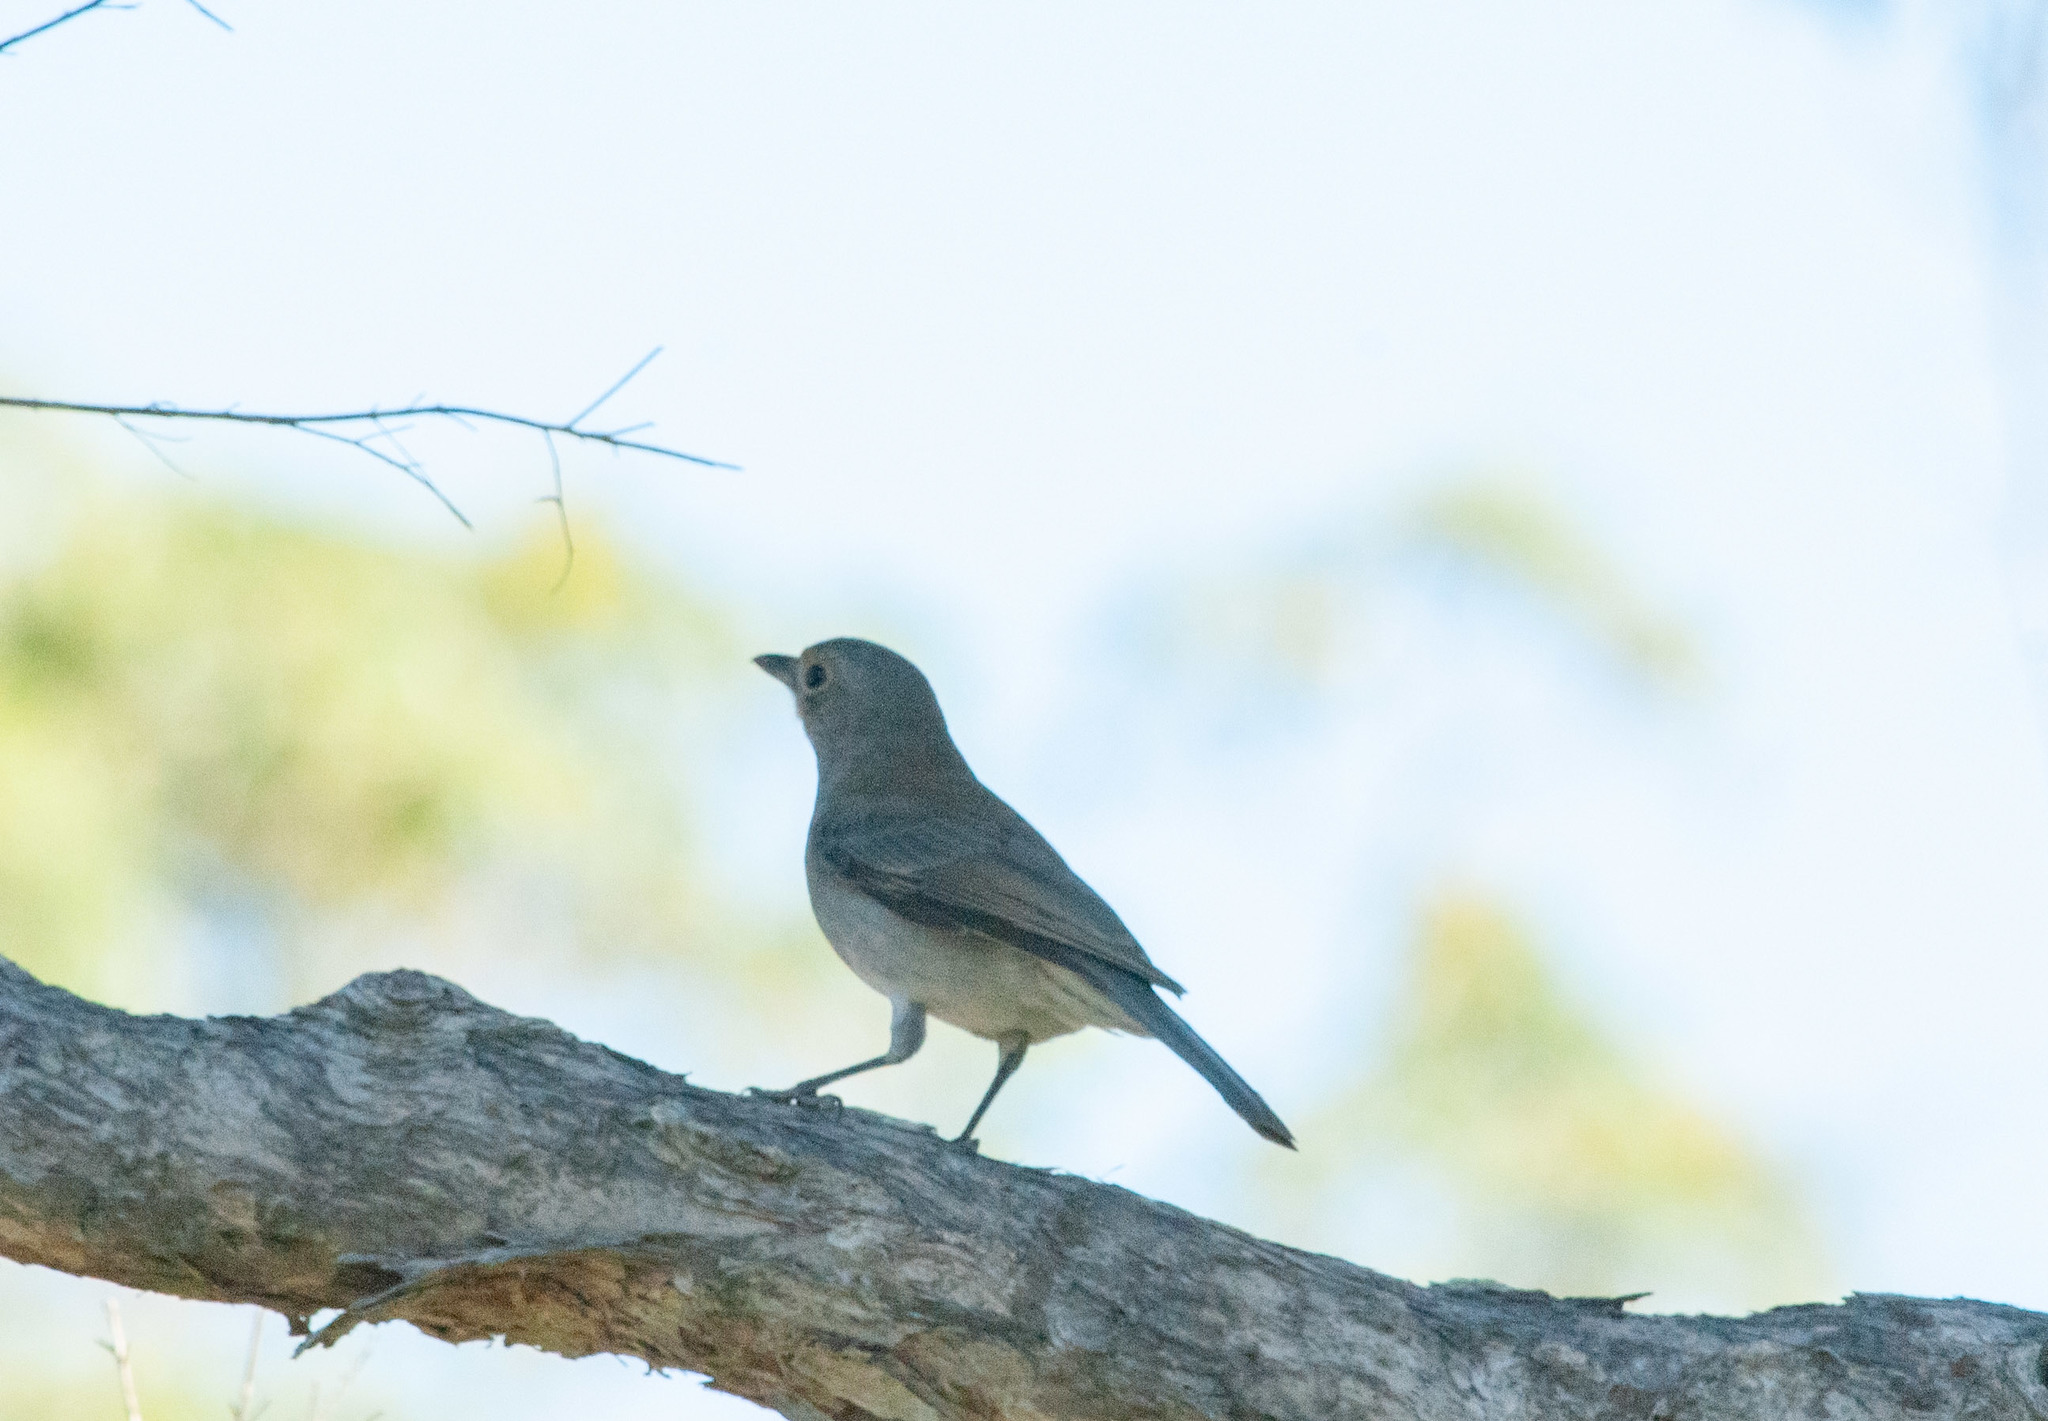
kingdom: Animalia
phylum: Chordata
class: Aves
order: Passeriformes
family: Pachycephalidae
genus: Colluricincla
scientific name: Colluricincla harmonica
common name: Grey shrikethrush
